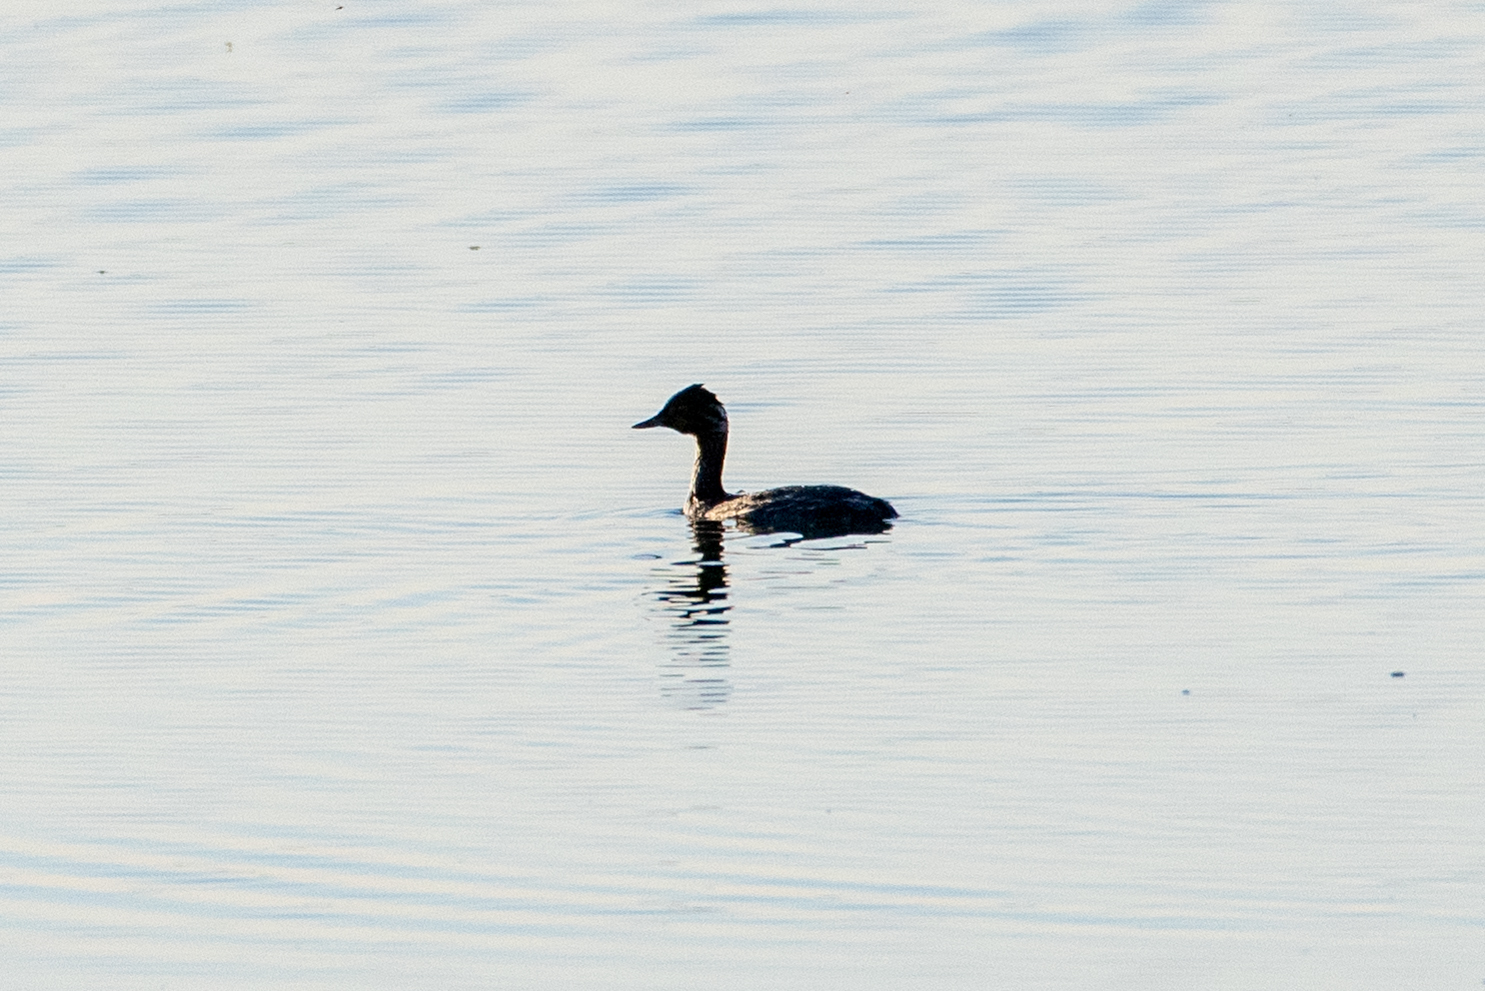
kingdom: Animalia
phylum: Chordata
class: Aves
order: Podicipediformes
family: Podicipedidae
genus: Podiceps
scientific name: Podiceps nigricollis
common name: Black-necked grebe
